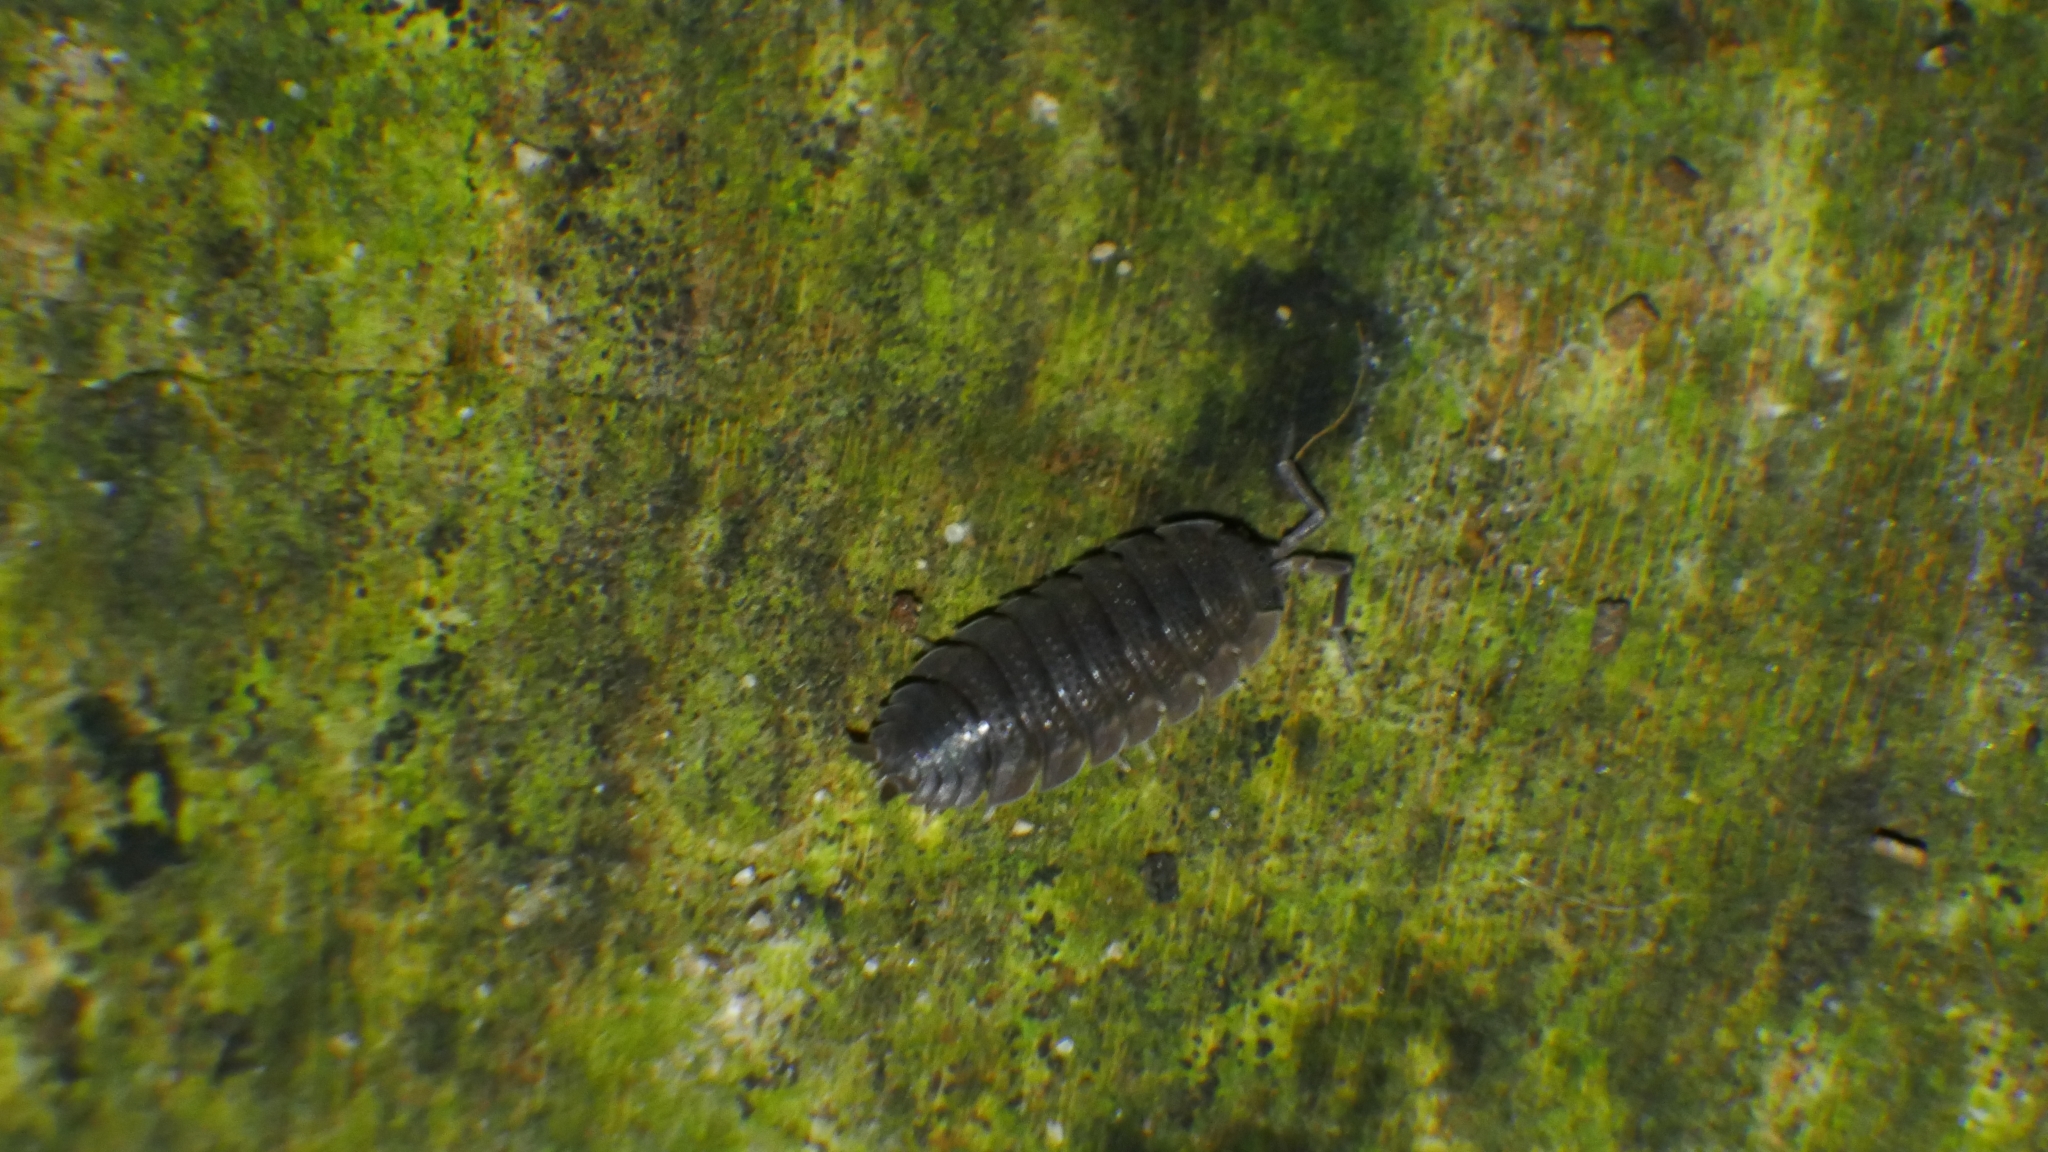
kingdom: Animalia
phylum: Arthropoda
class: Malacostraca
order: Isopoda
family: Porcellionidae
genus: Porcellio
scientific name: Porcellio scaber
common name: Common rough woodlouse
